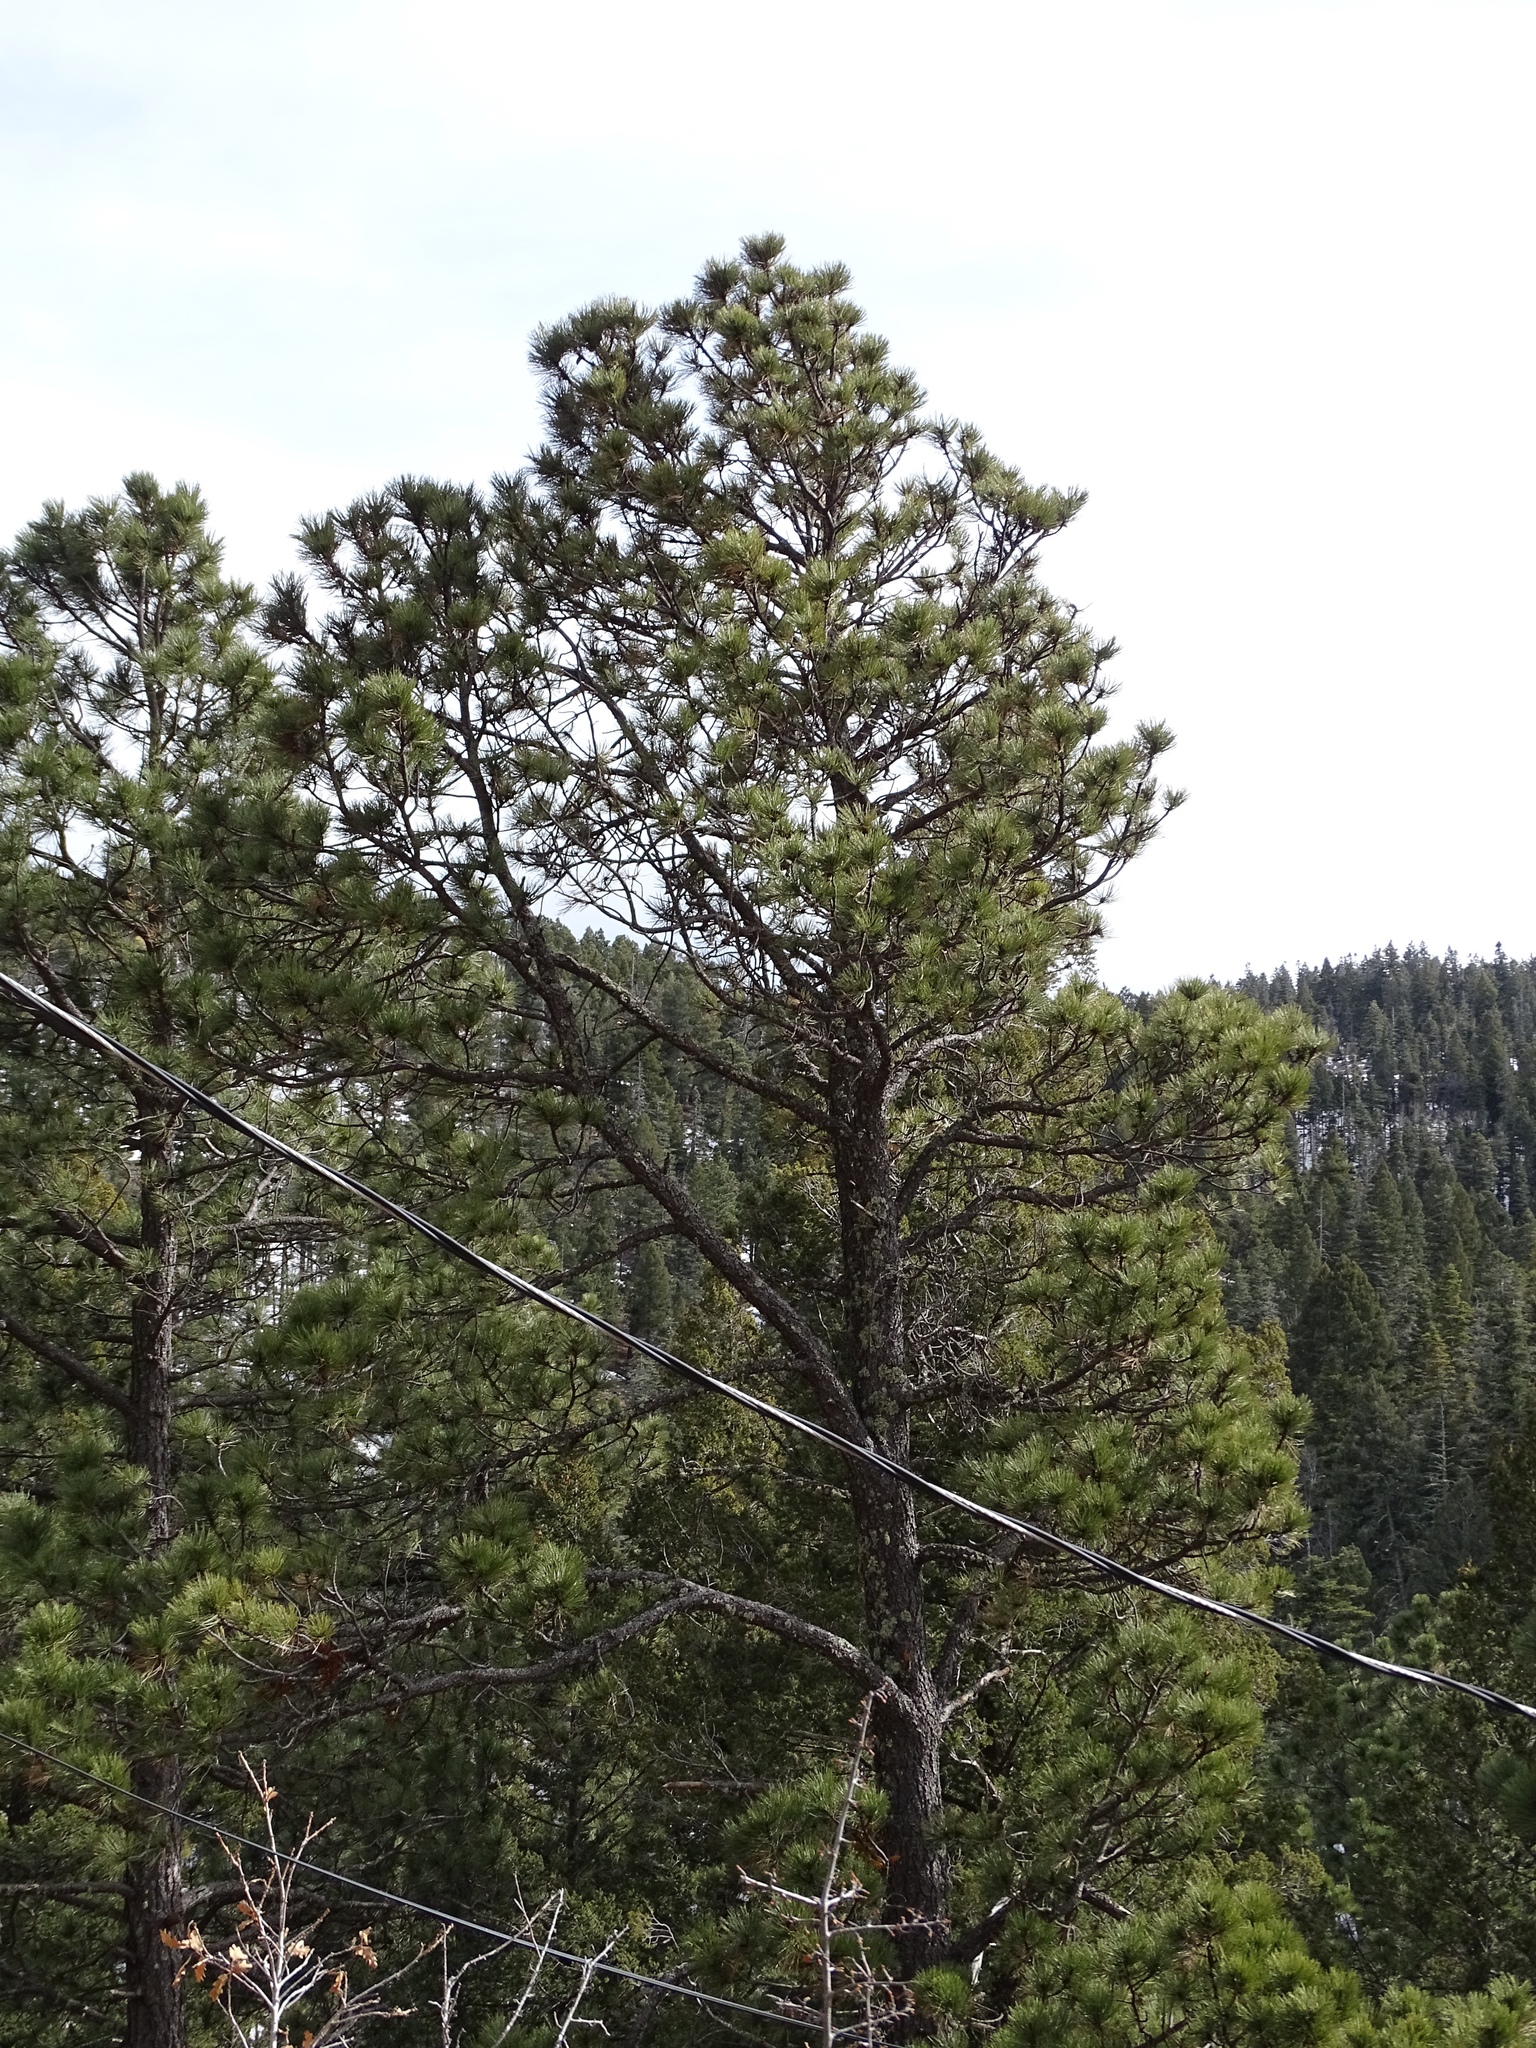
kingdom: Plantae
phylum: Tracheophyta
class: Pinopsida
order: Pinales
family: Pinaceae
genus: Pinus
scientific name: Pinus ponderosa
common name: Western yellow-pine
